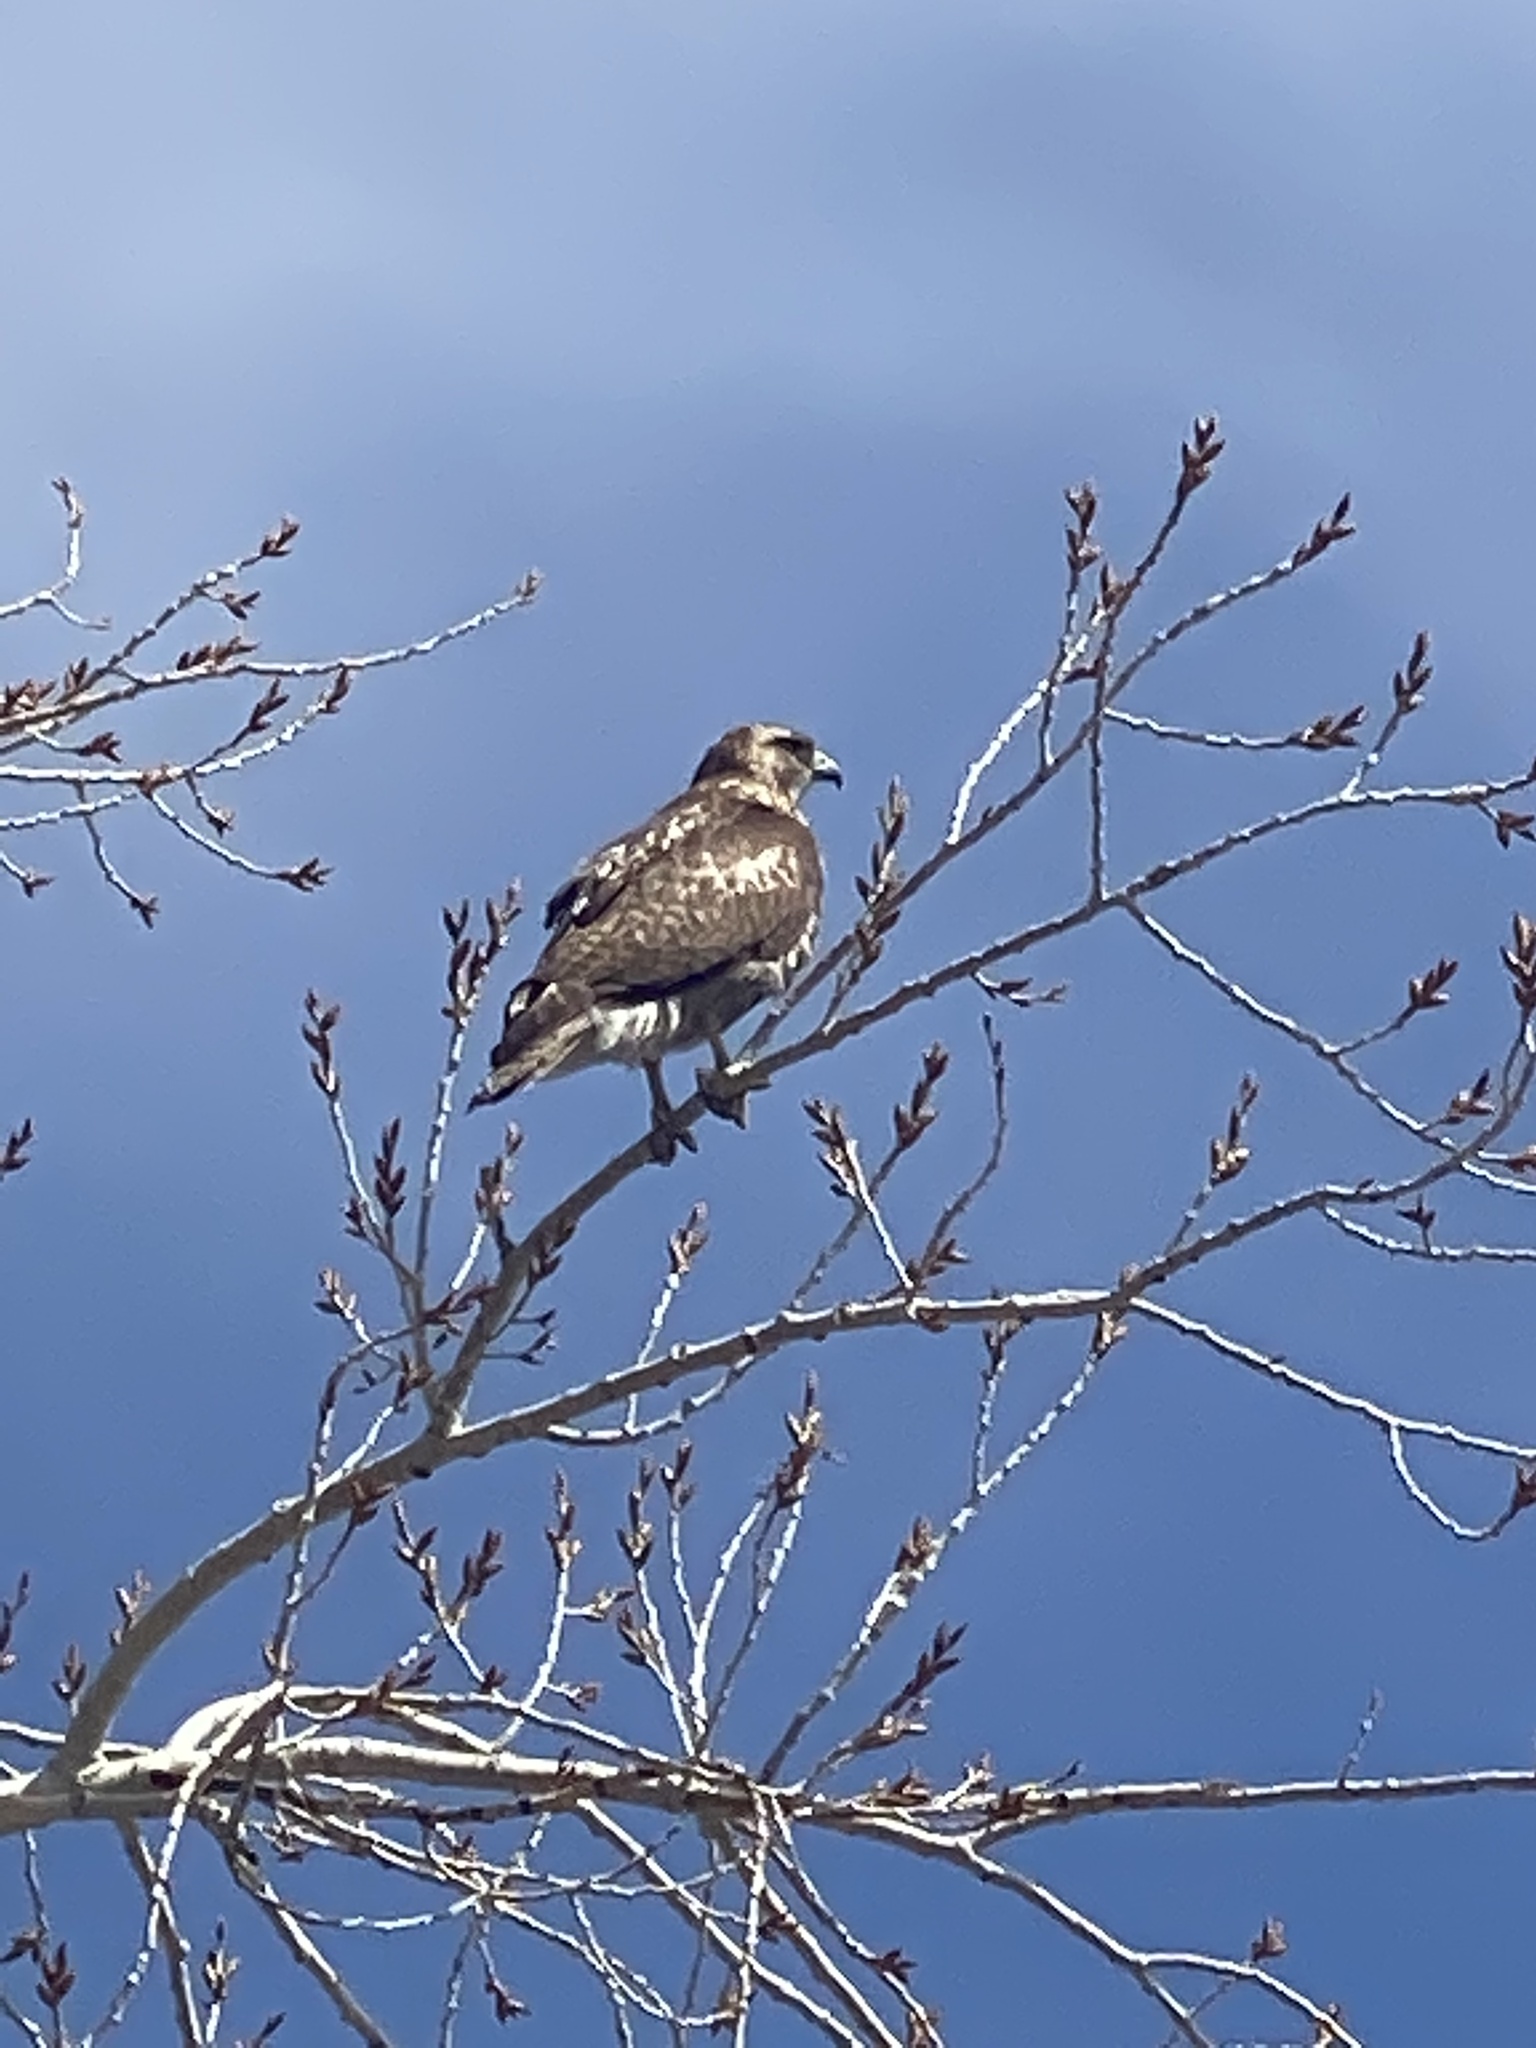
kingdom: Animalia
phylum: Chordata
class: Aves
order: Accipitriformes
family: Accipitridae
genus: Buteo
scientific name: Buteo jamaicensis
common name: Red-tailed hawk
